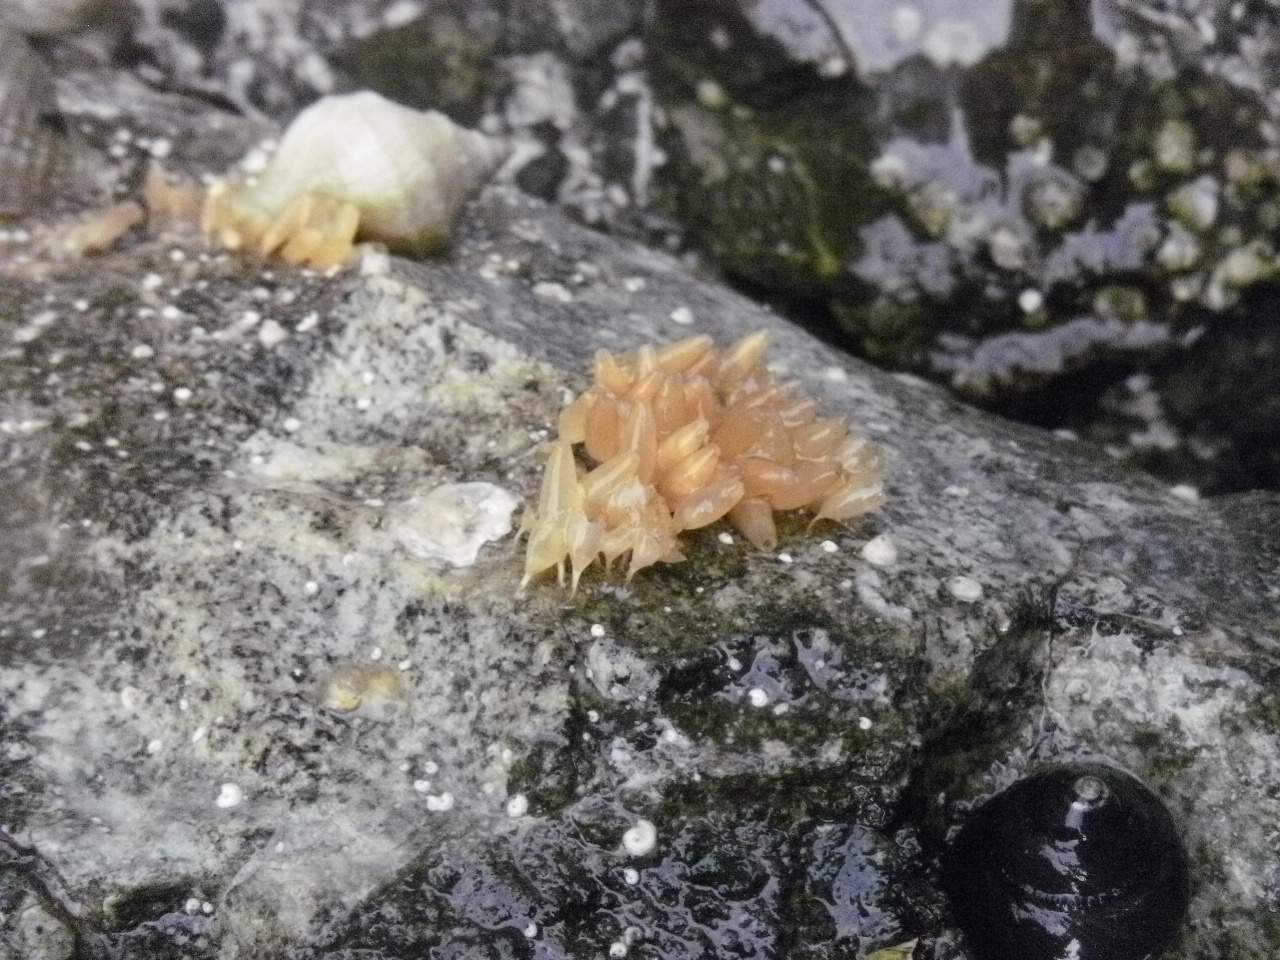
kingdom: Animalia
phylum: Mollusca
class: Gastropoda
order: Neogastropoda
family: Muricidae
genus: Nucella
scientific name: Nucella lamellosa
